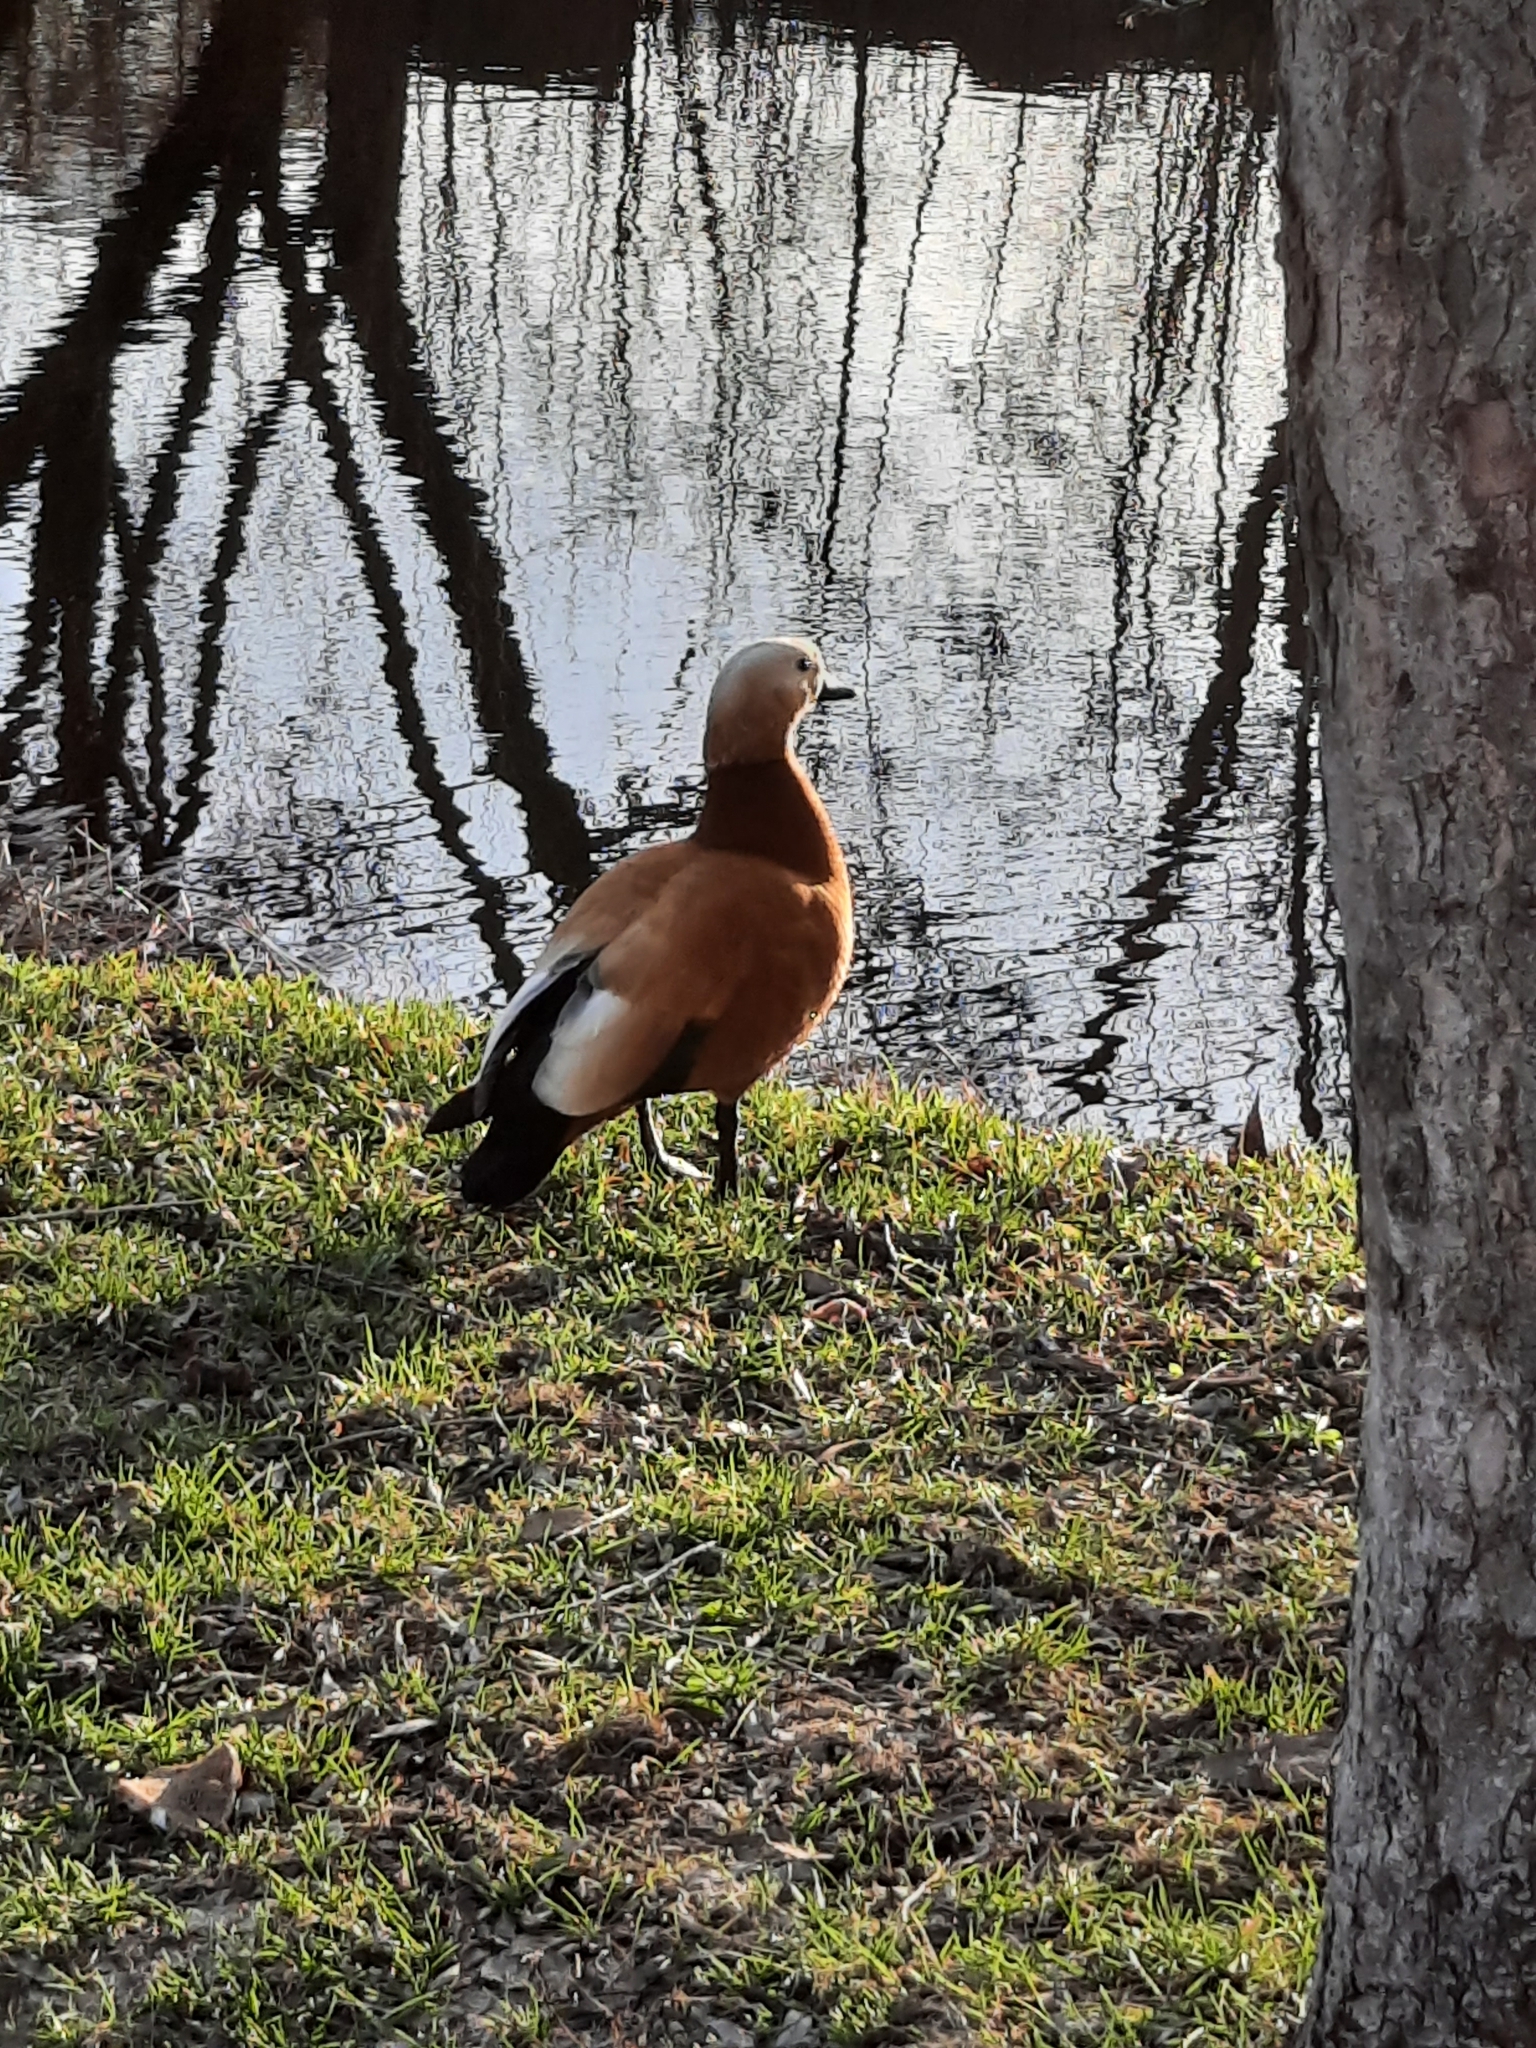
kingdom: Animalia
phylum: Chordata
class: Aves
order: Anseriformes
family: Anatidae
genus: Tadorna
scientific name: Tadorna ferruginea
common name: Ruddy shelduck
